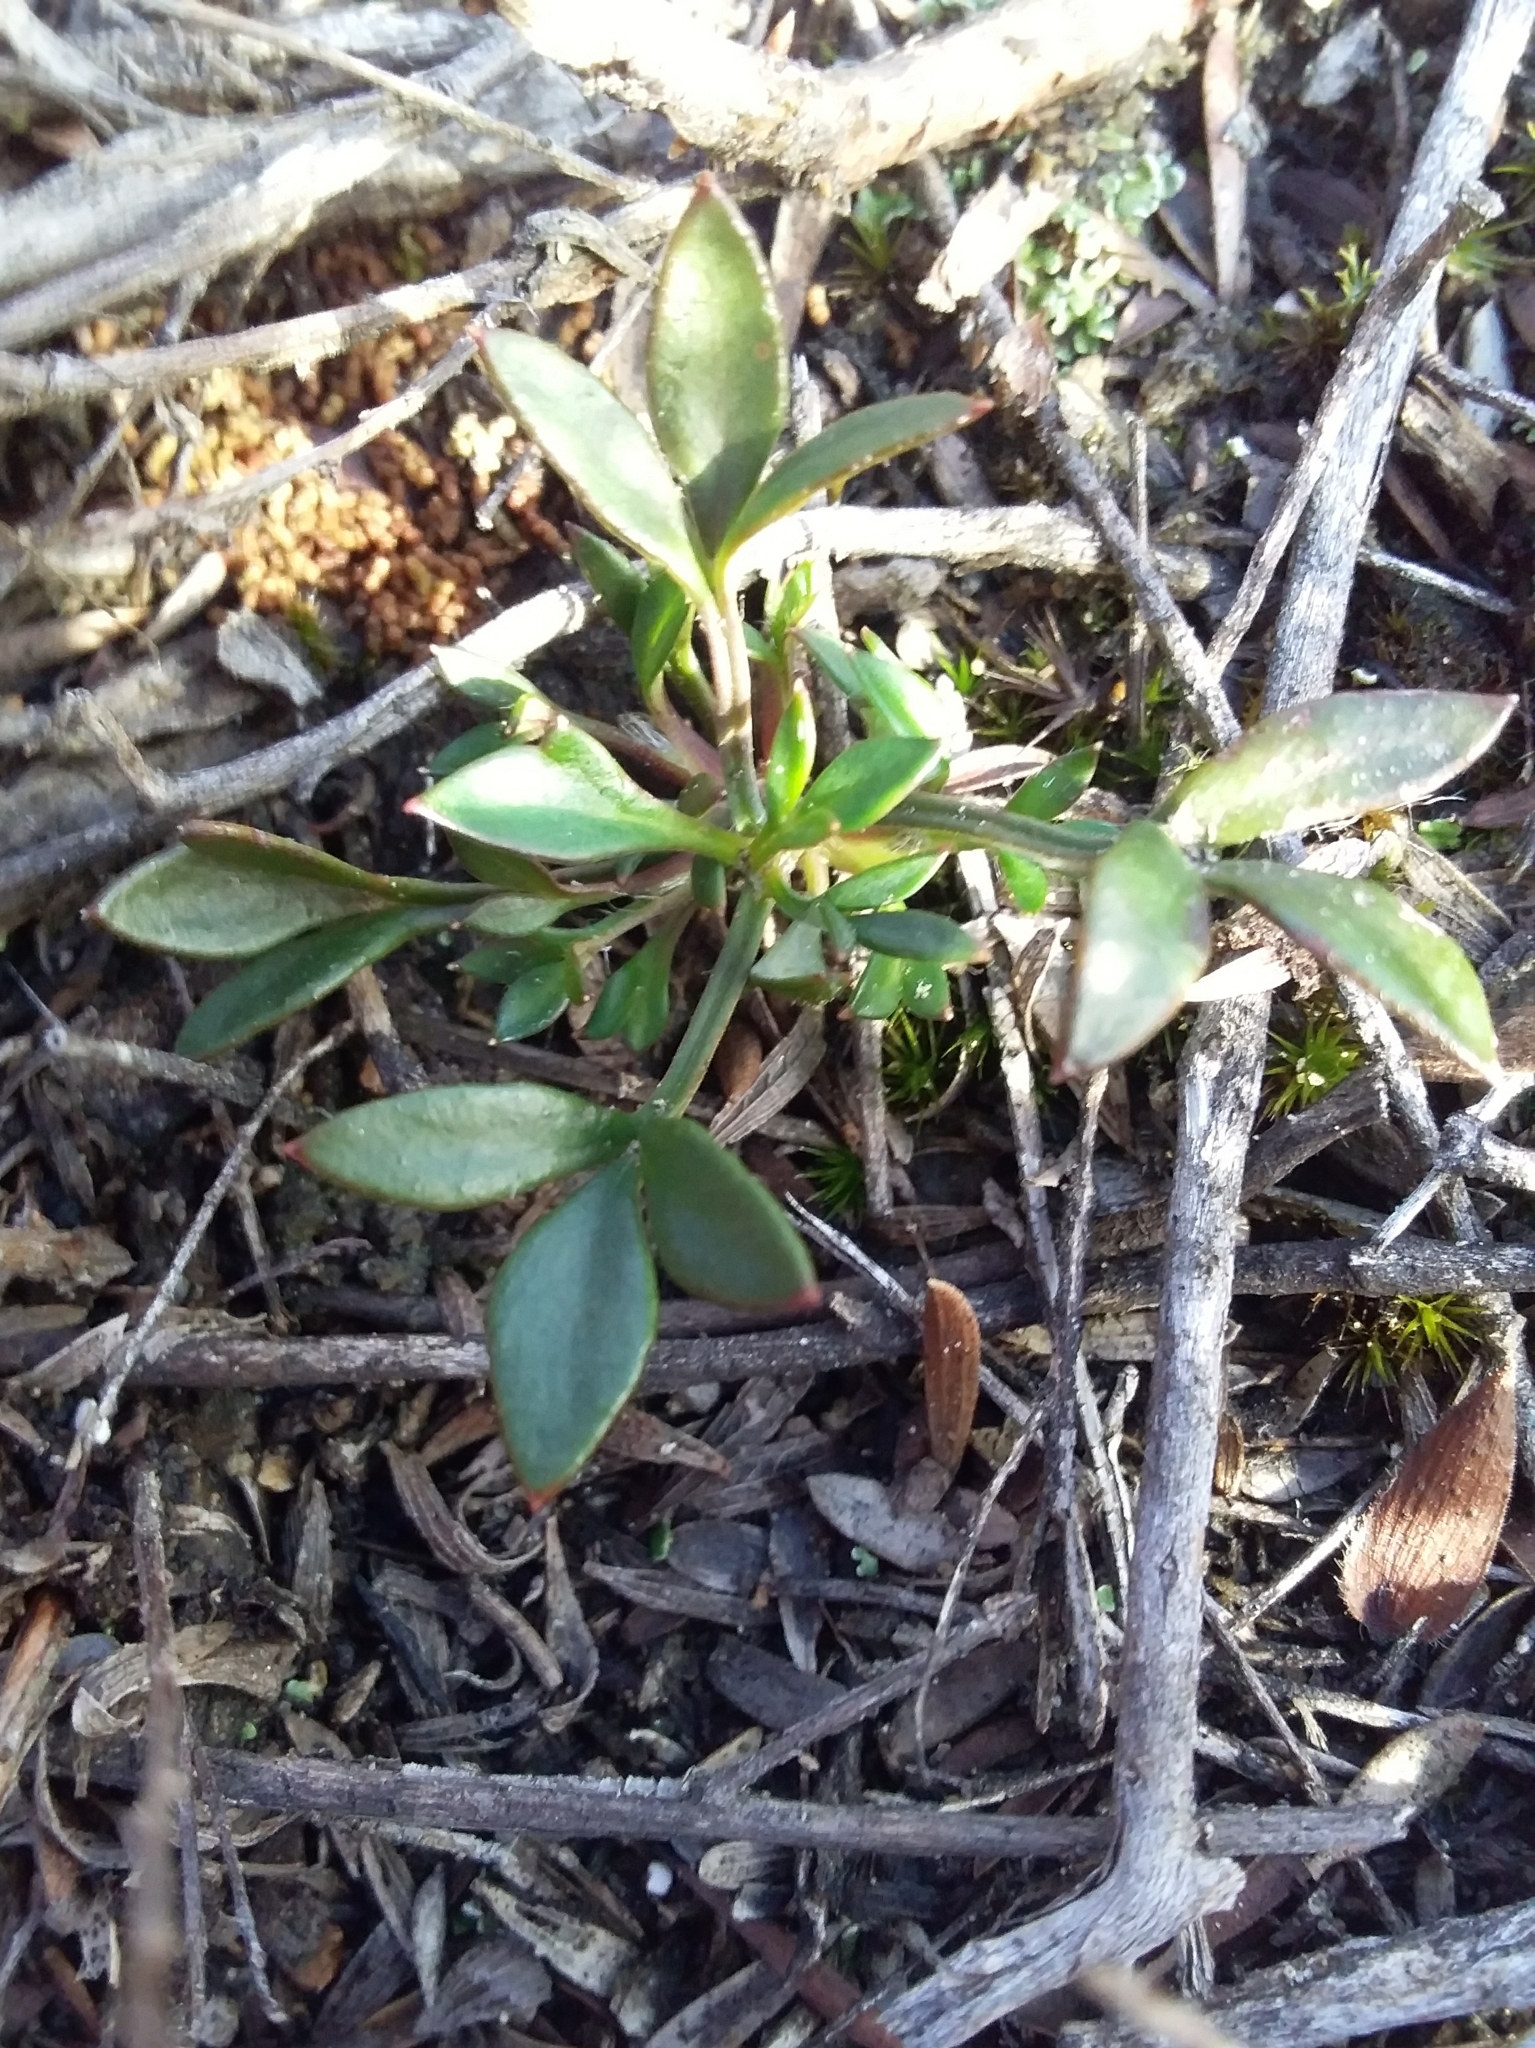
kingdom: Plantae
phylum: Tracheophyta
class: Magnoliopsida
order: Apiales
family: Apiaceae
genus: Xanthosia
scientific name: Xanthosia tasmanica
